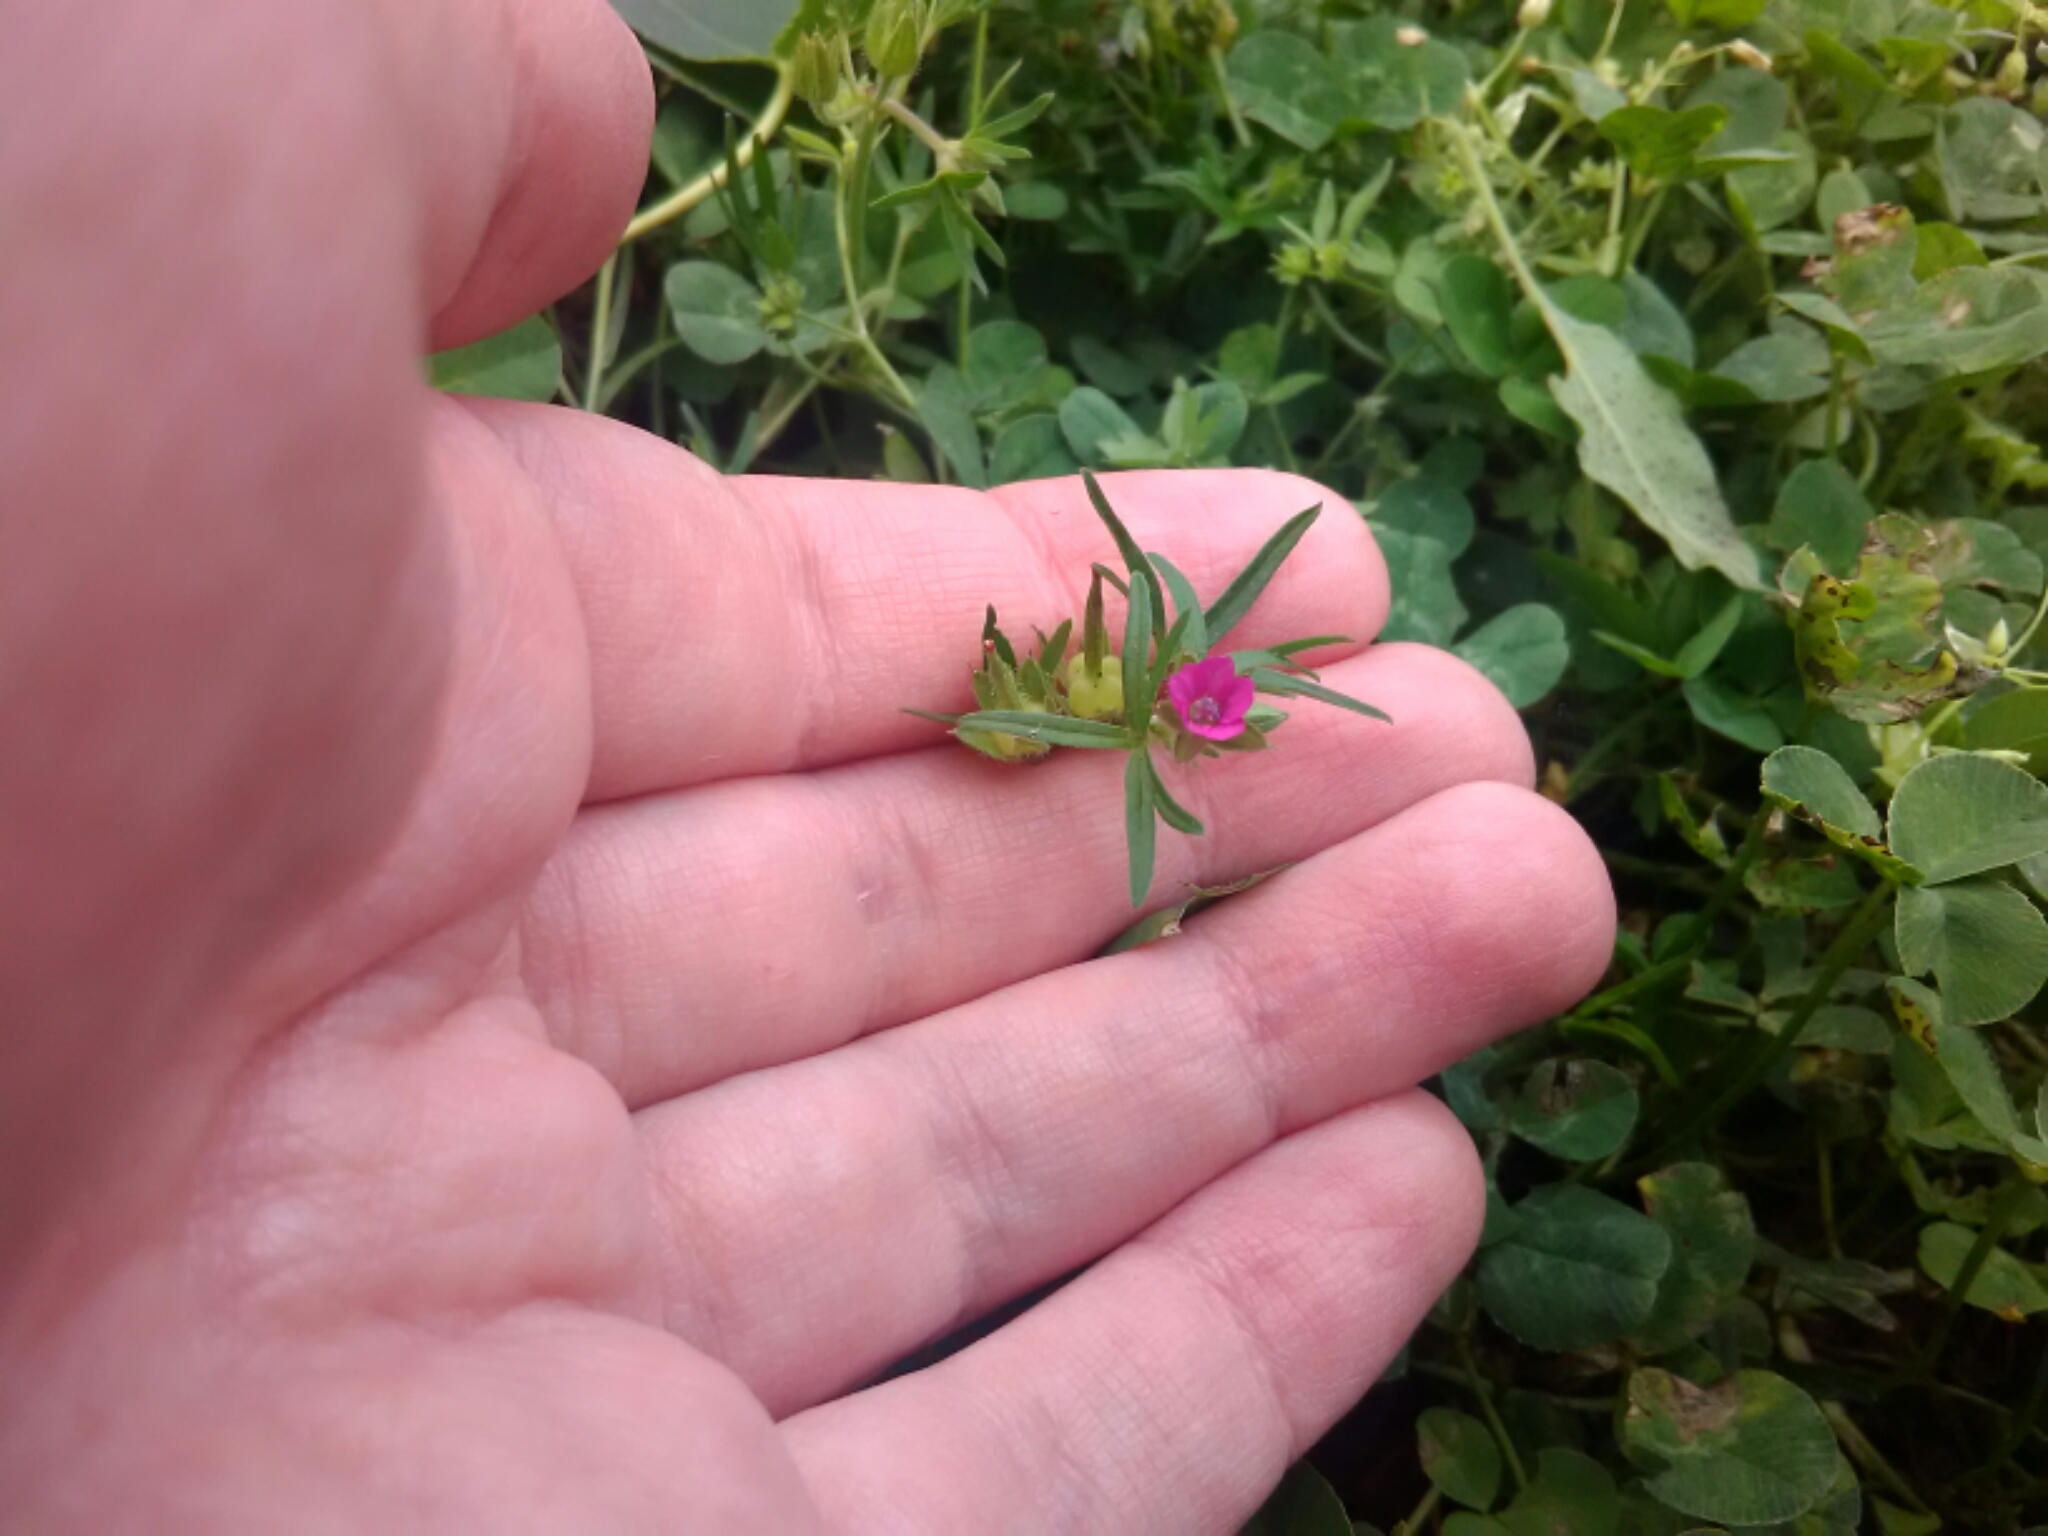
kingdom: Plantae
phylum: Tracheophyta
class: Magnoliopsida
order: Geraniales
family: Geraniaceae
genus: Geranium
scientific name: Geranium dissectum
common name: Cut-leaved crane's-bill
